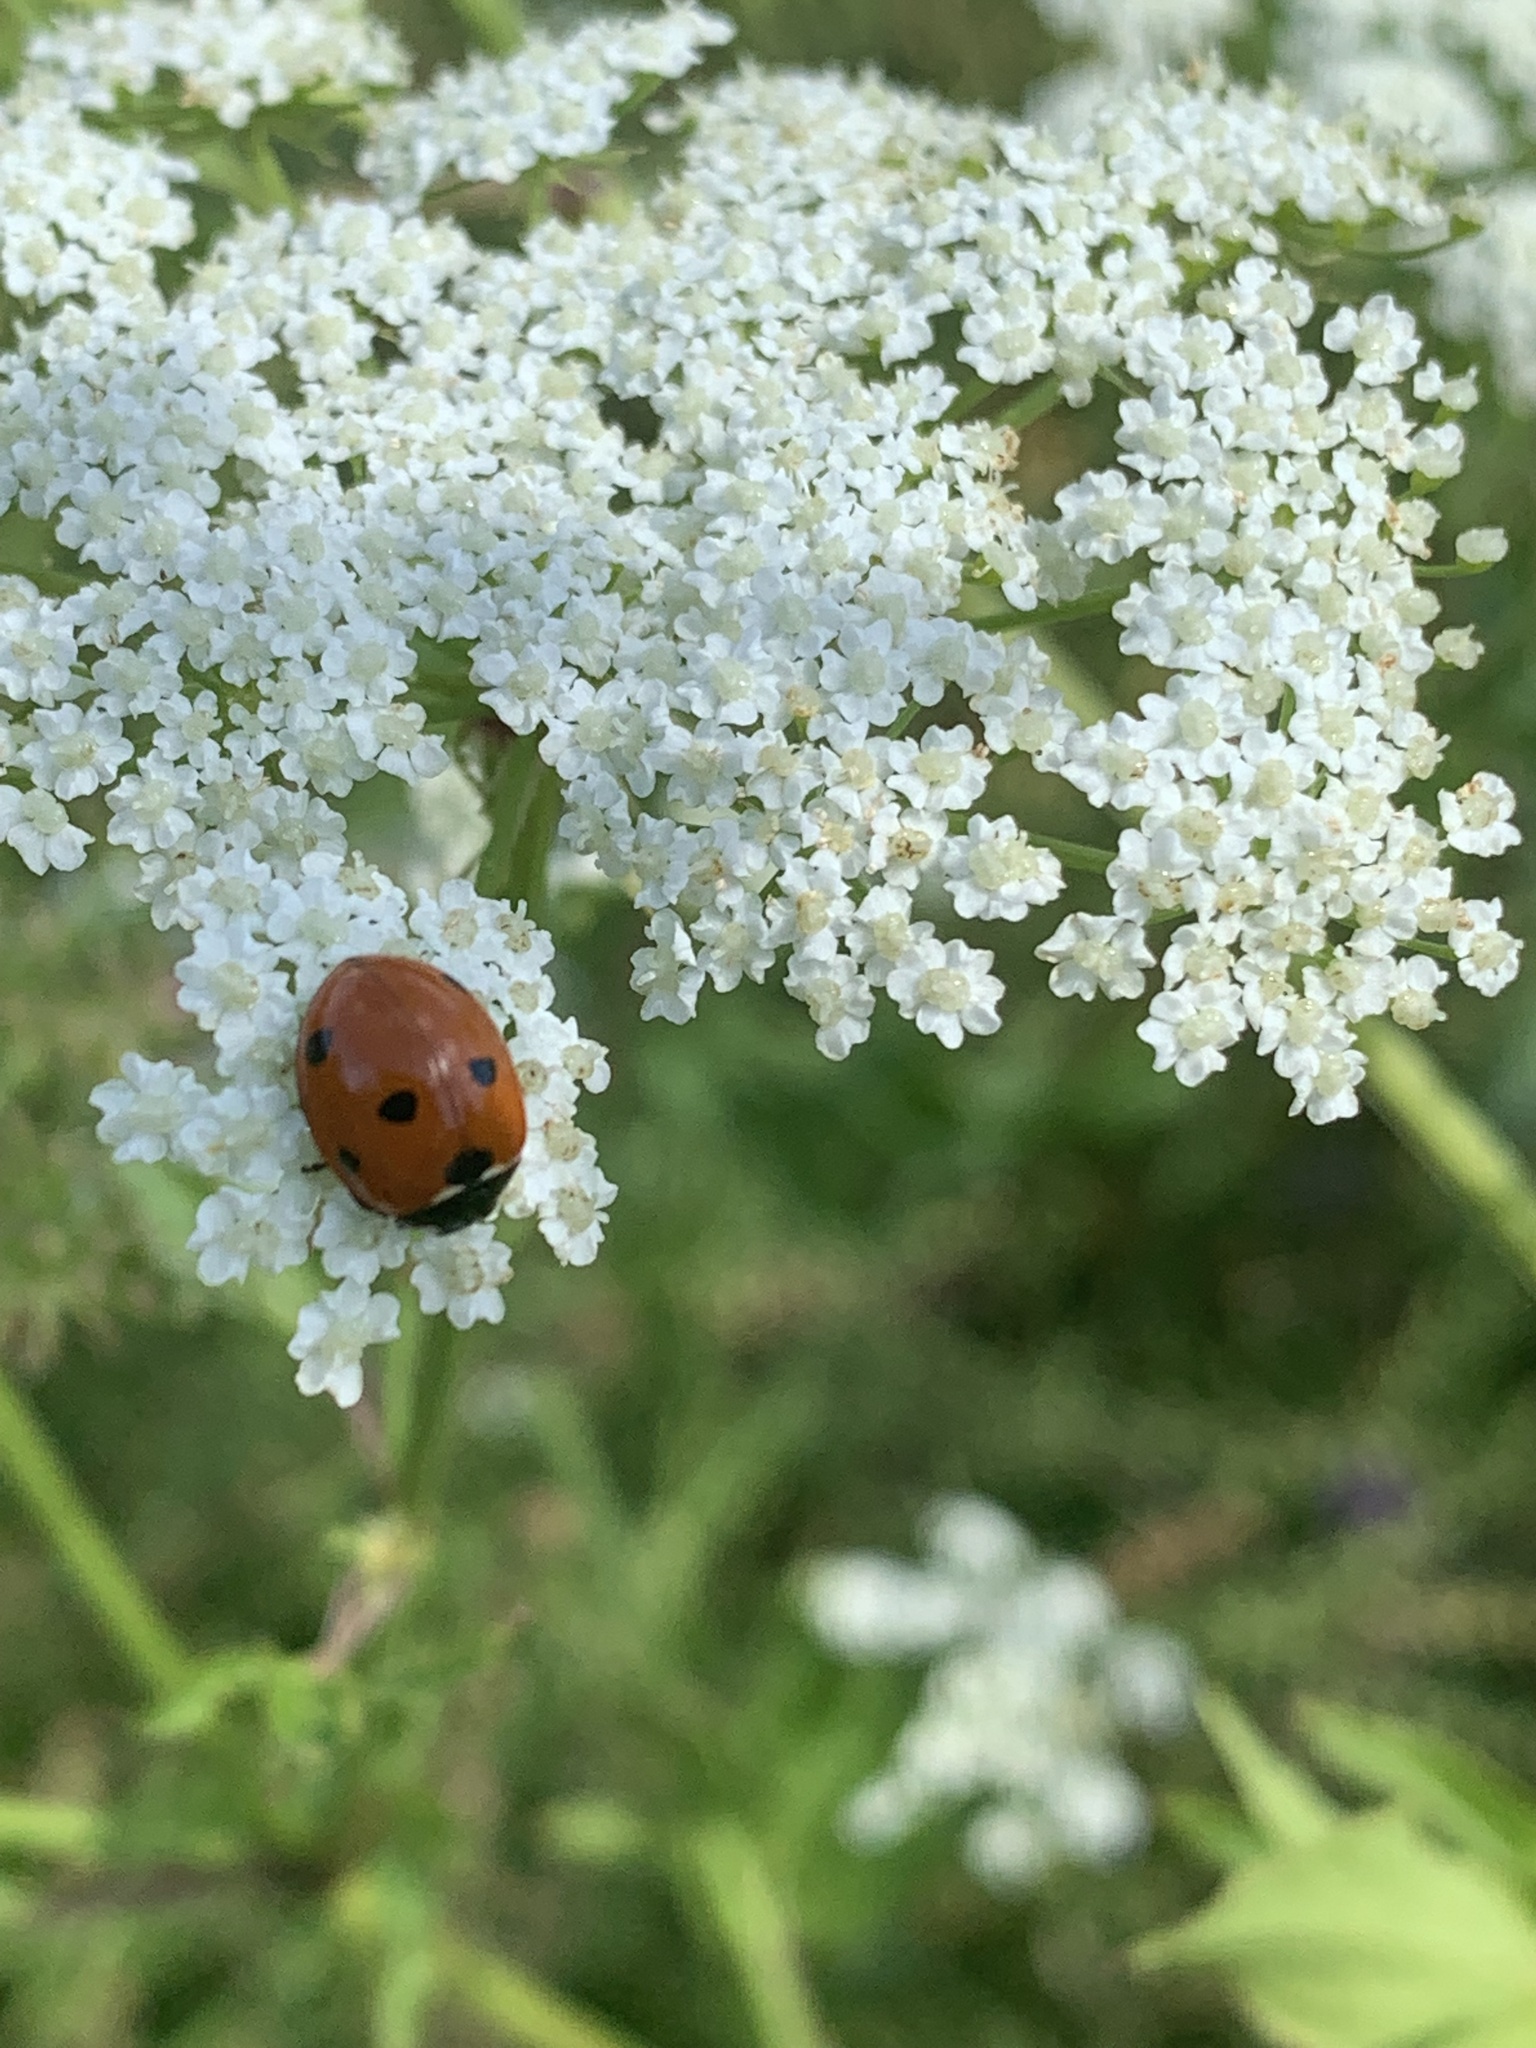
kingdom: Animalia
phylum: Arthropoda
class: Insecta
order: Coleoptera
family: Coccinellidae
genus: Coccinella
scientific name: Coccinella septempunctata
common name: Sevenspotted lady beetle
